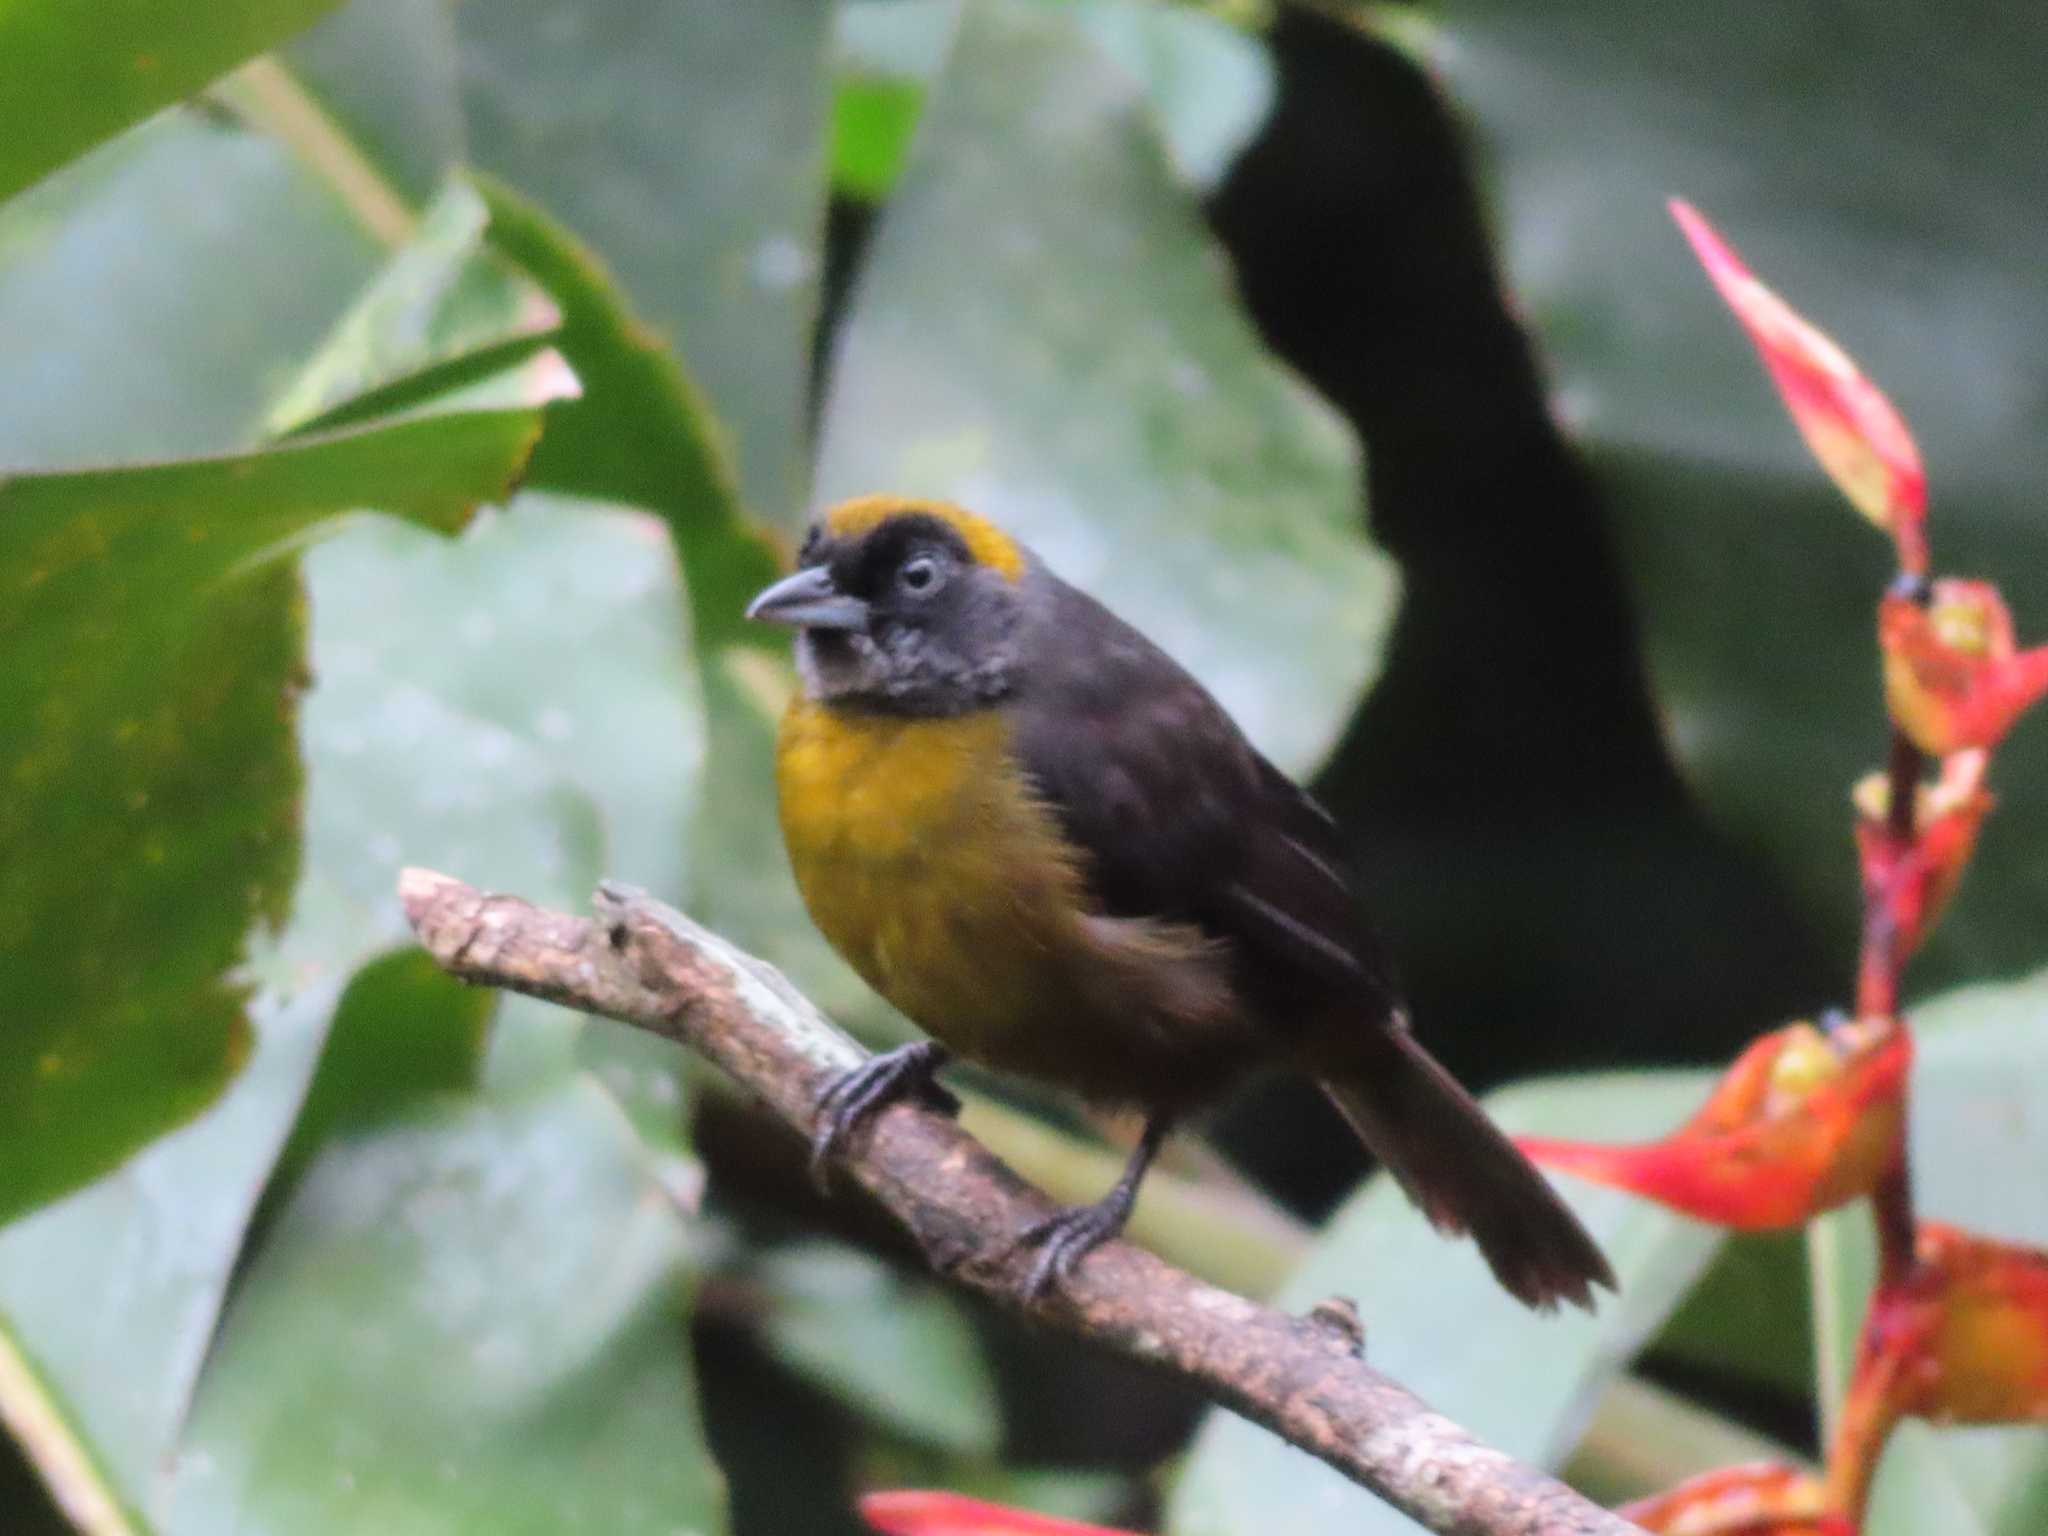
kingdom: Animalia
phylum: Chordata
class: Aves
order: Passeriformes
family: Mitrospingidae
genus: Mitrospingus
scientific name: Mitrospingus cassinii
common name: Dusky-faced tanager
